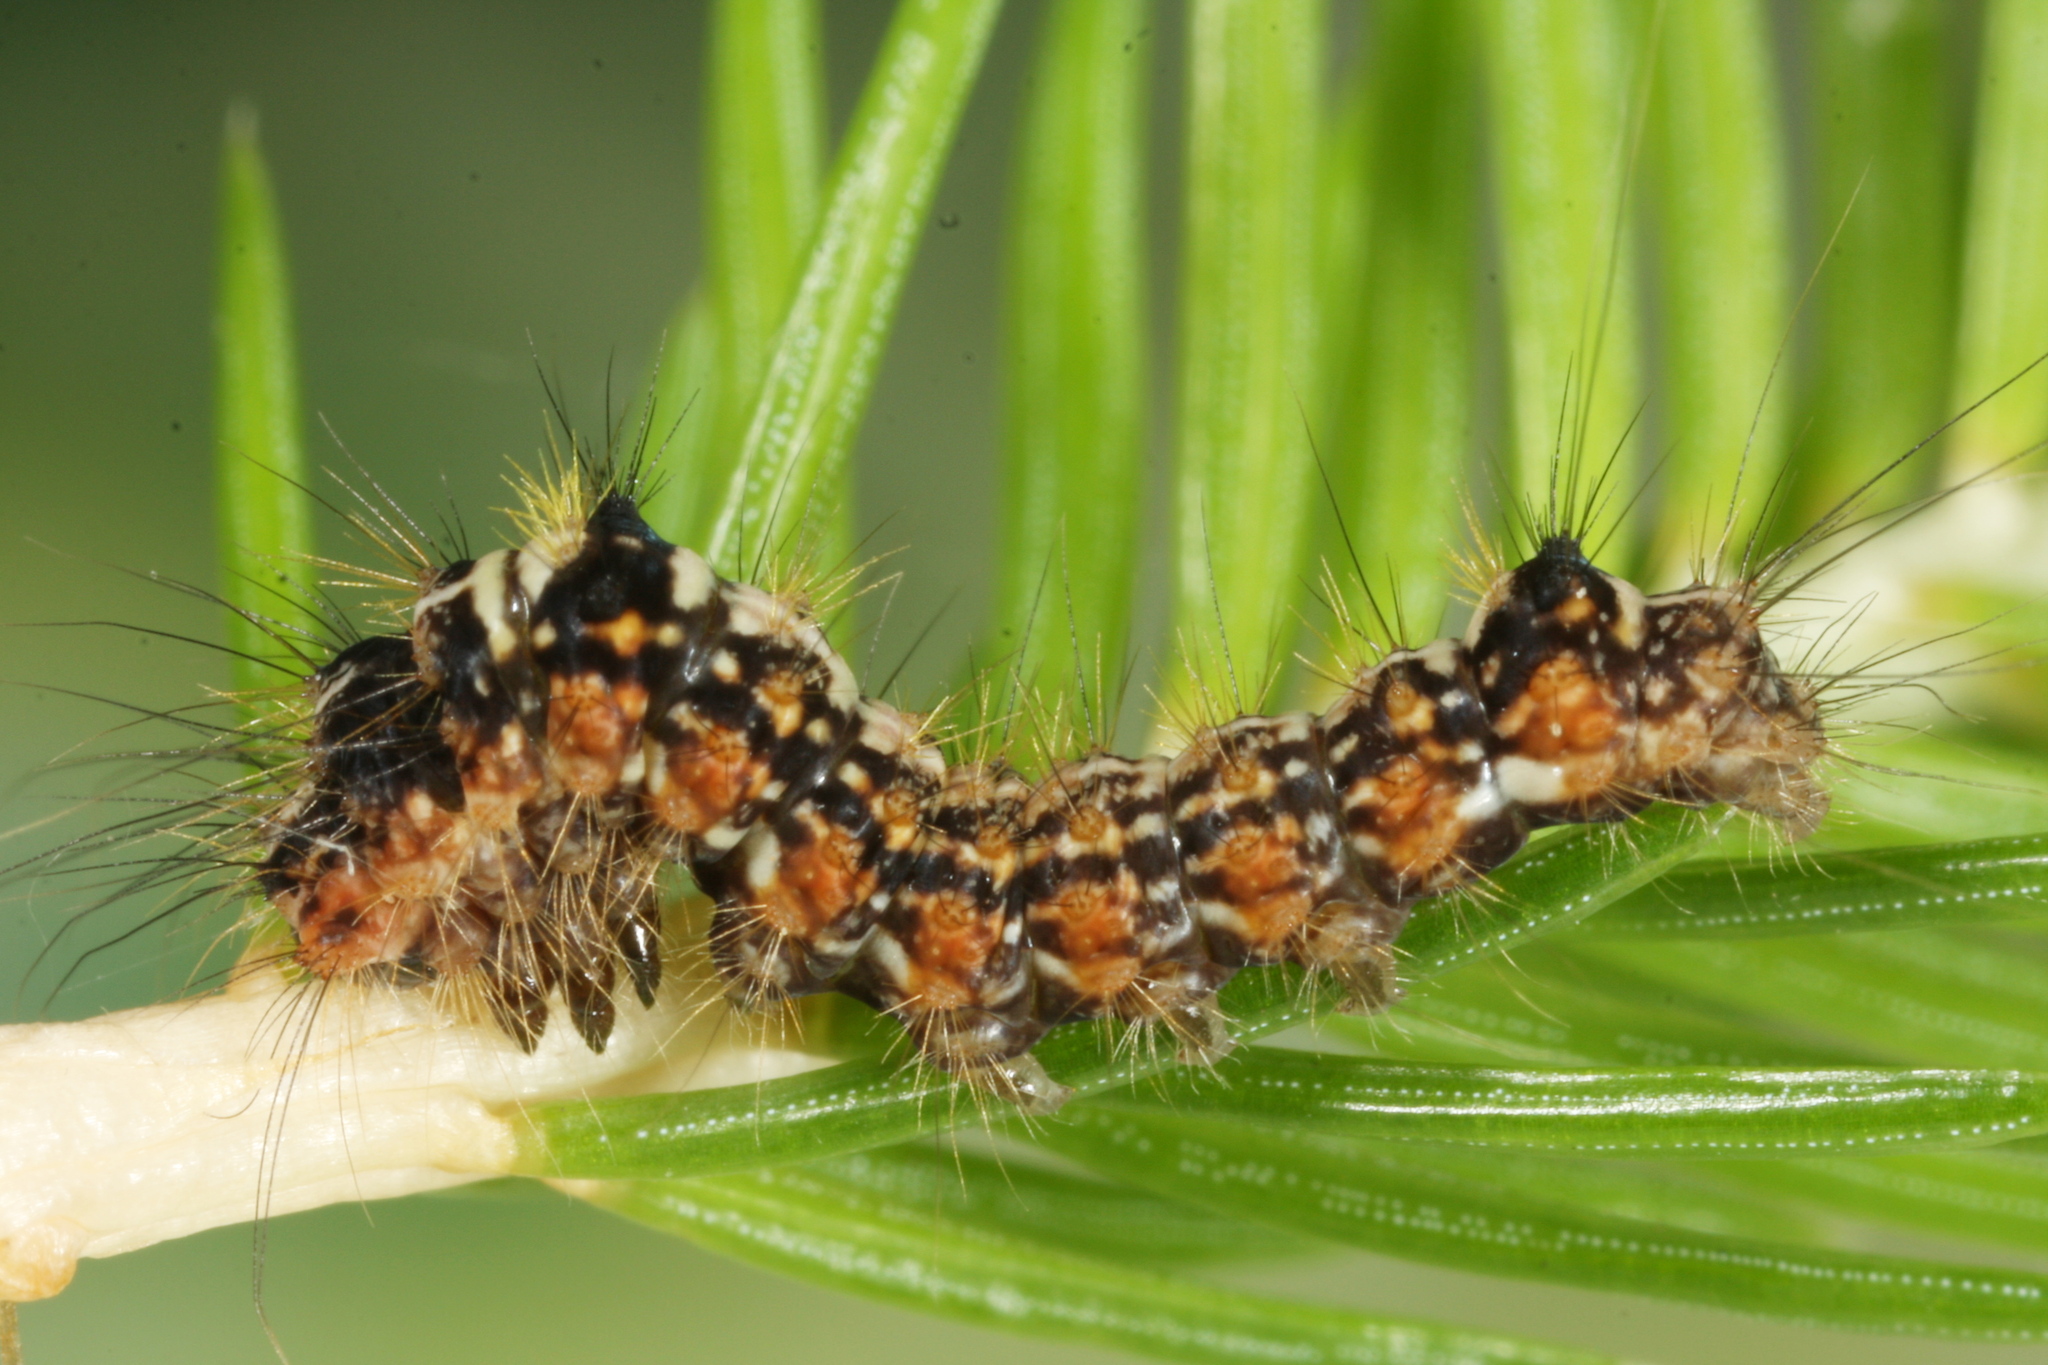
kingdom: Animalia
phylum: Arthropoda
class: Insecta
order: Lepidoptera
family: Noctuidae
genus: Panthea
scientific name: Panthea coenobita
